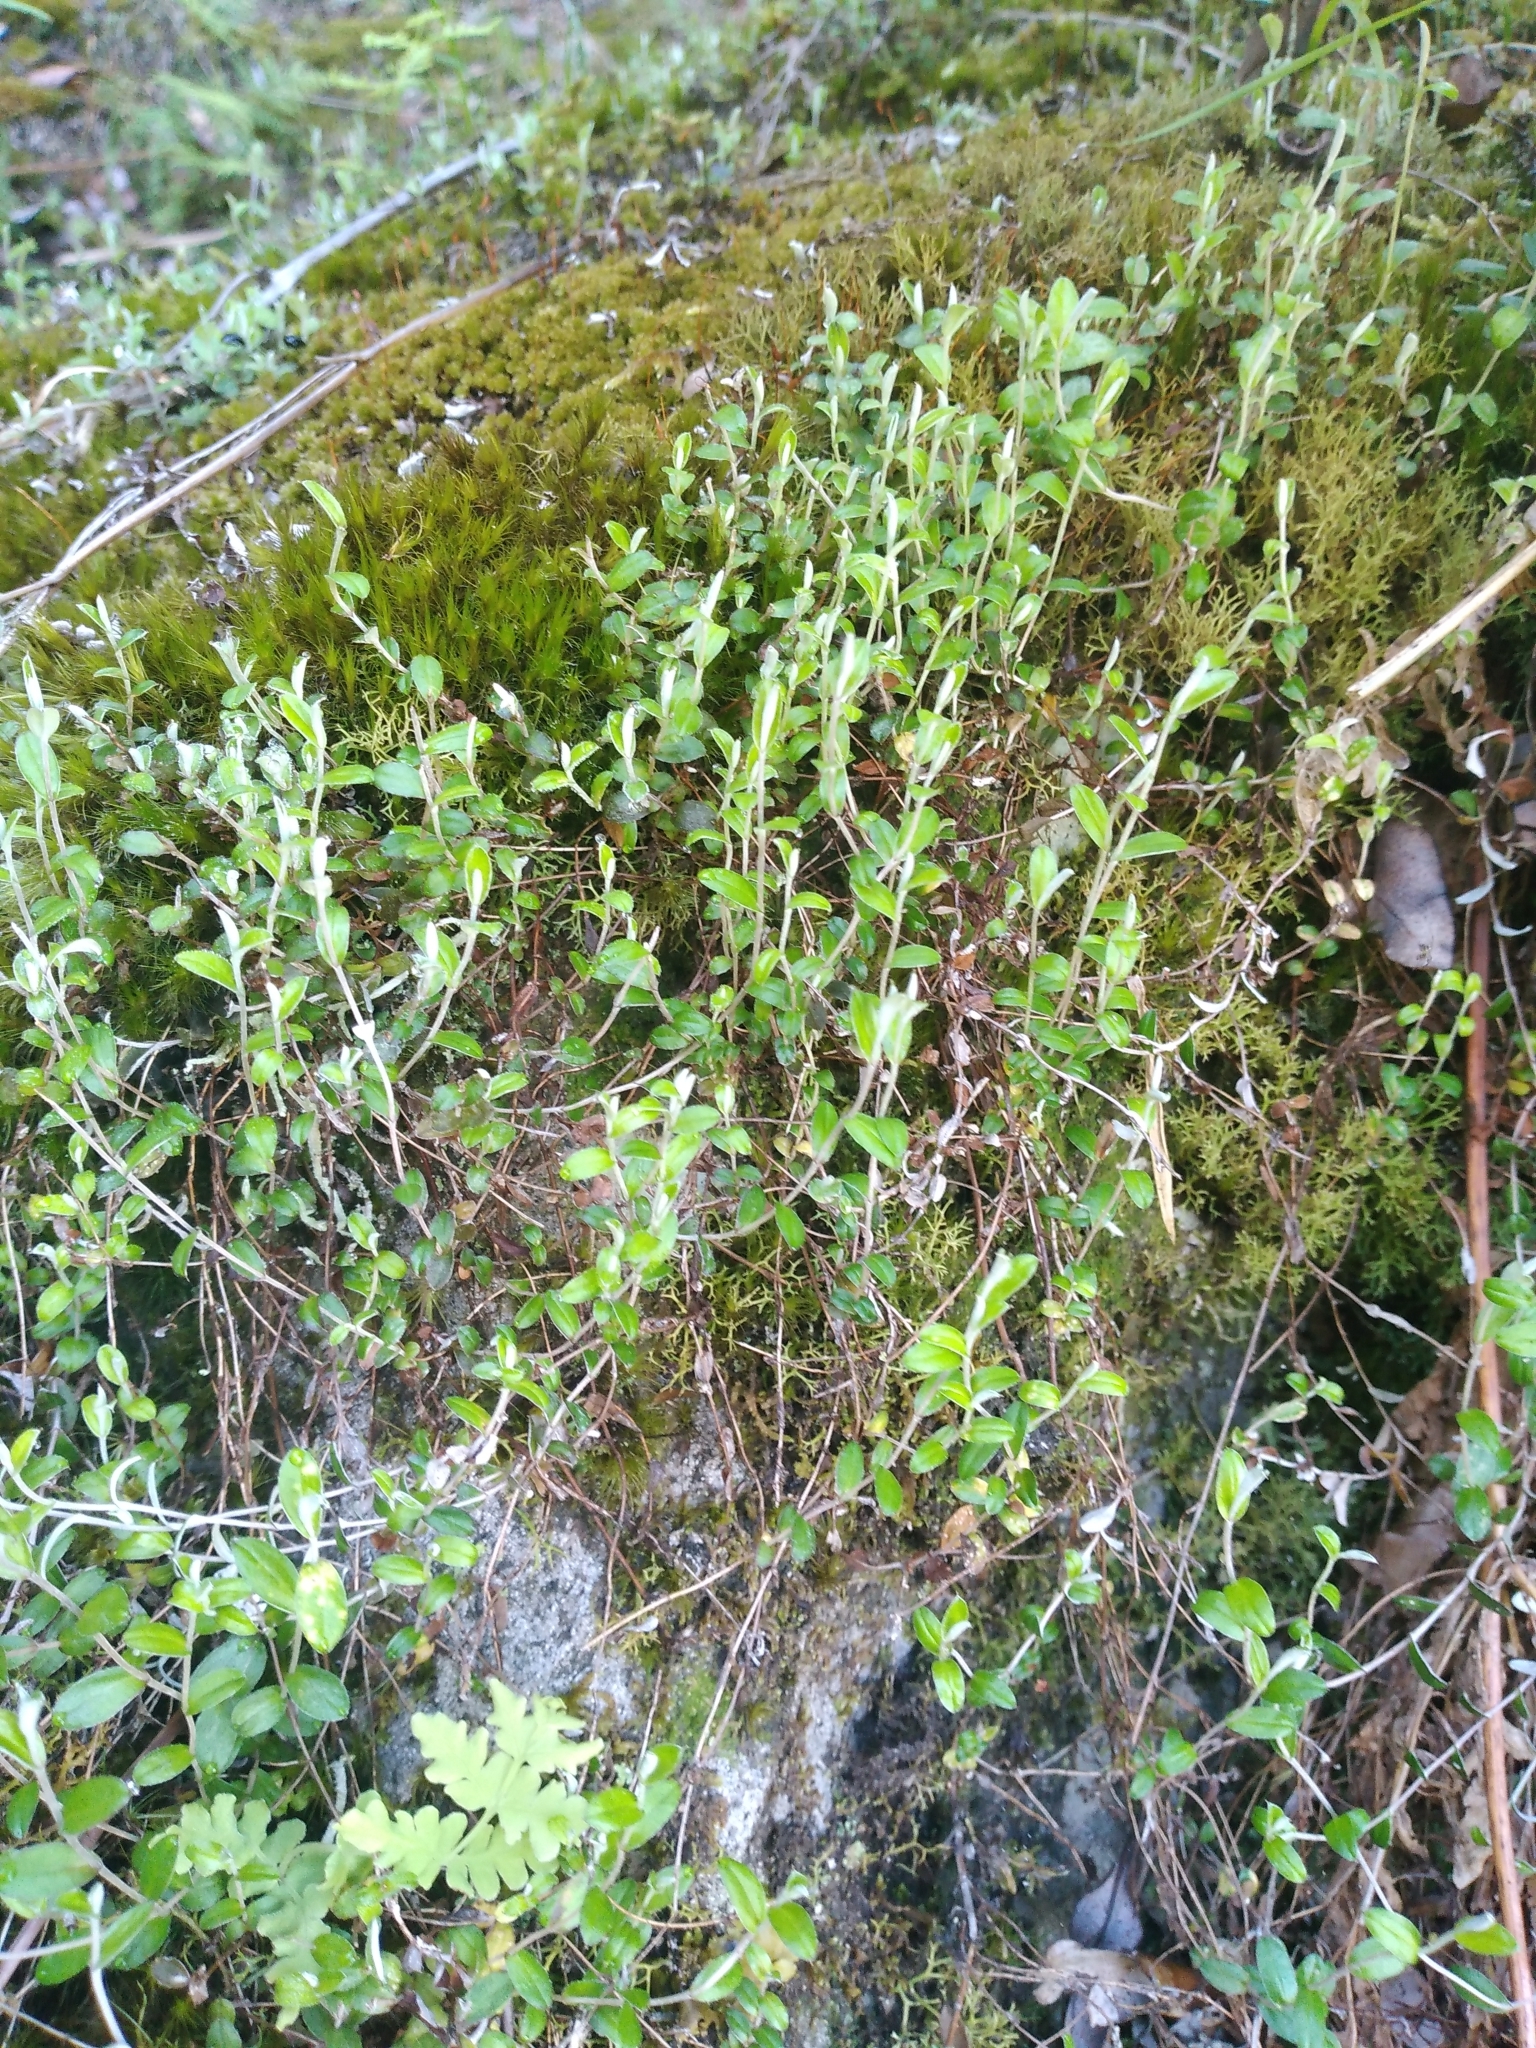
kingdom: Plantae
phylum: Tracheophyta
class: Magnoliopsida
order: Asterales
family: Asteraceae
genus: Helichrysum
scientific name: Helichrysum filicaule
